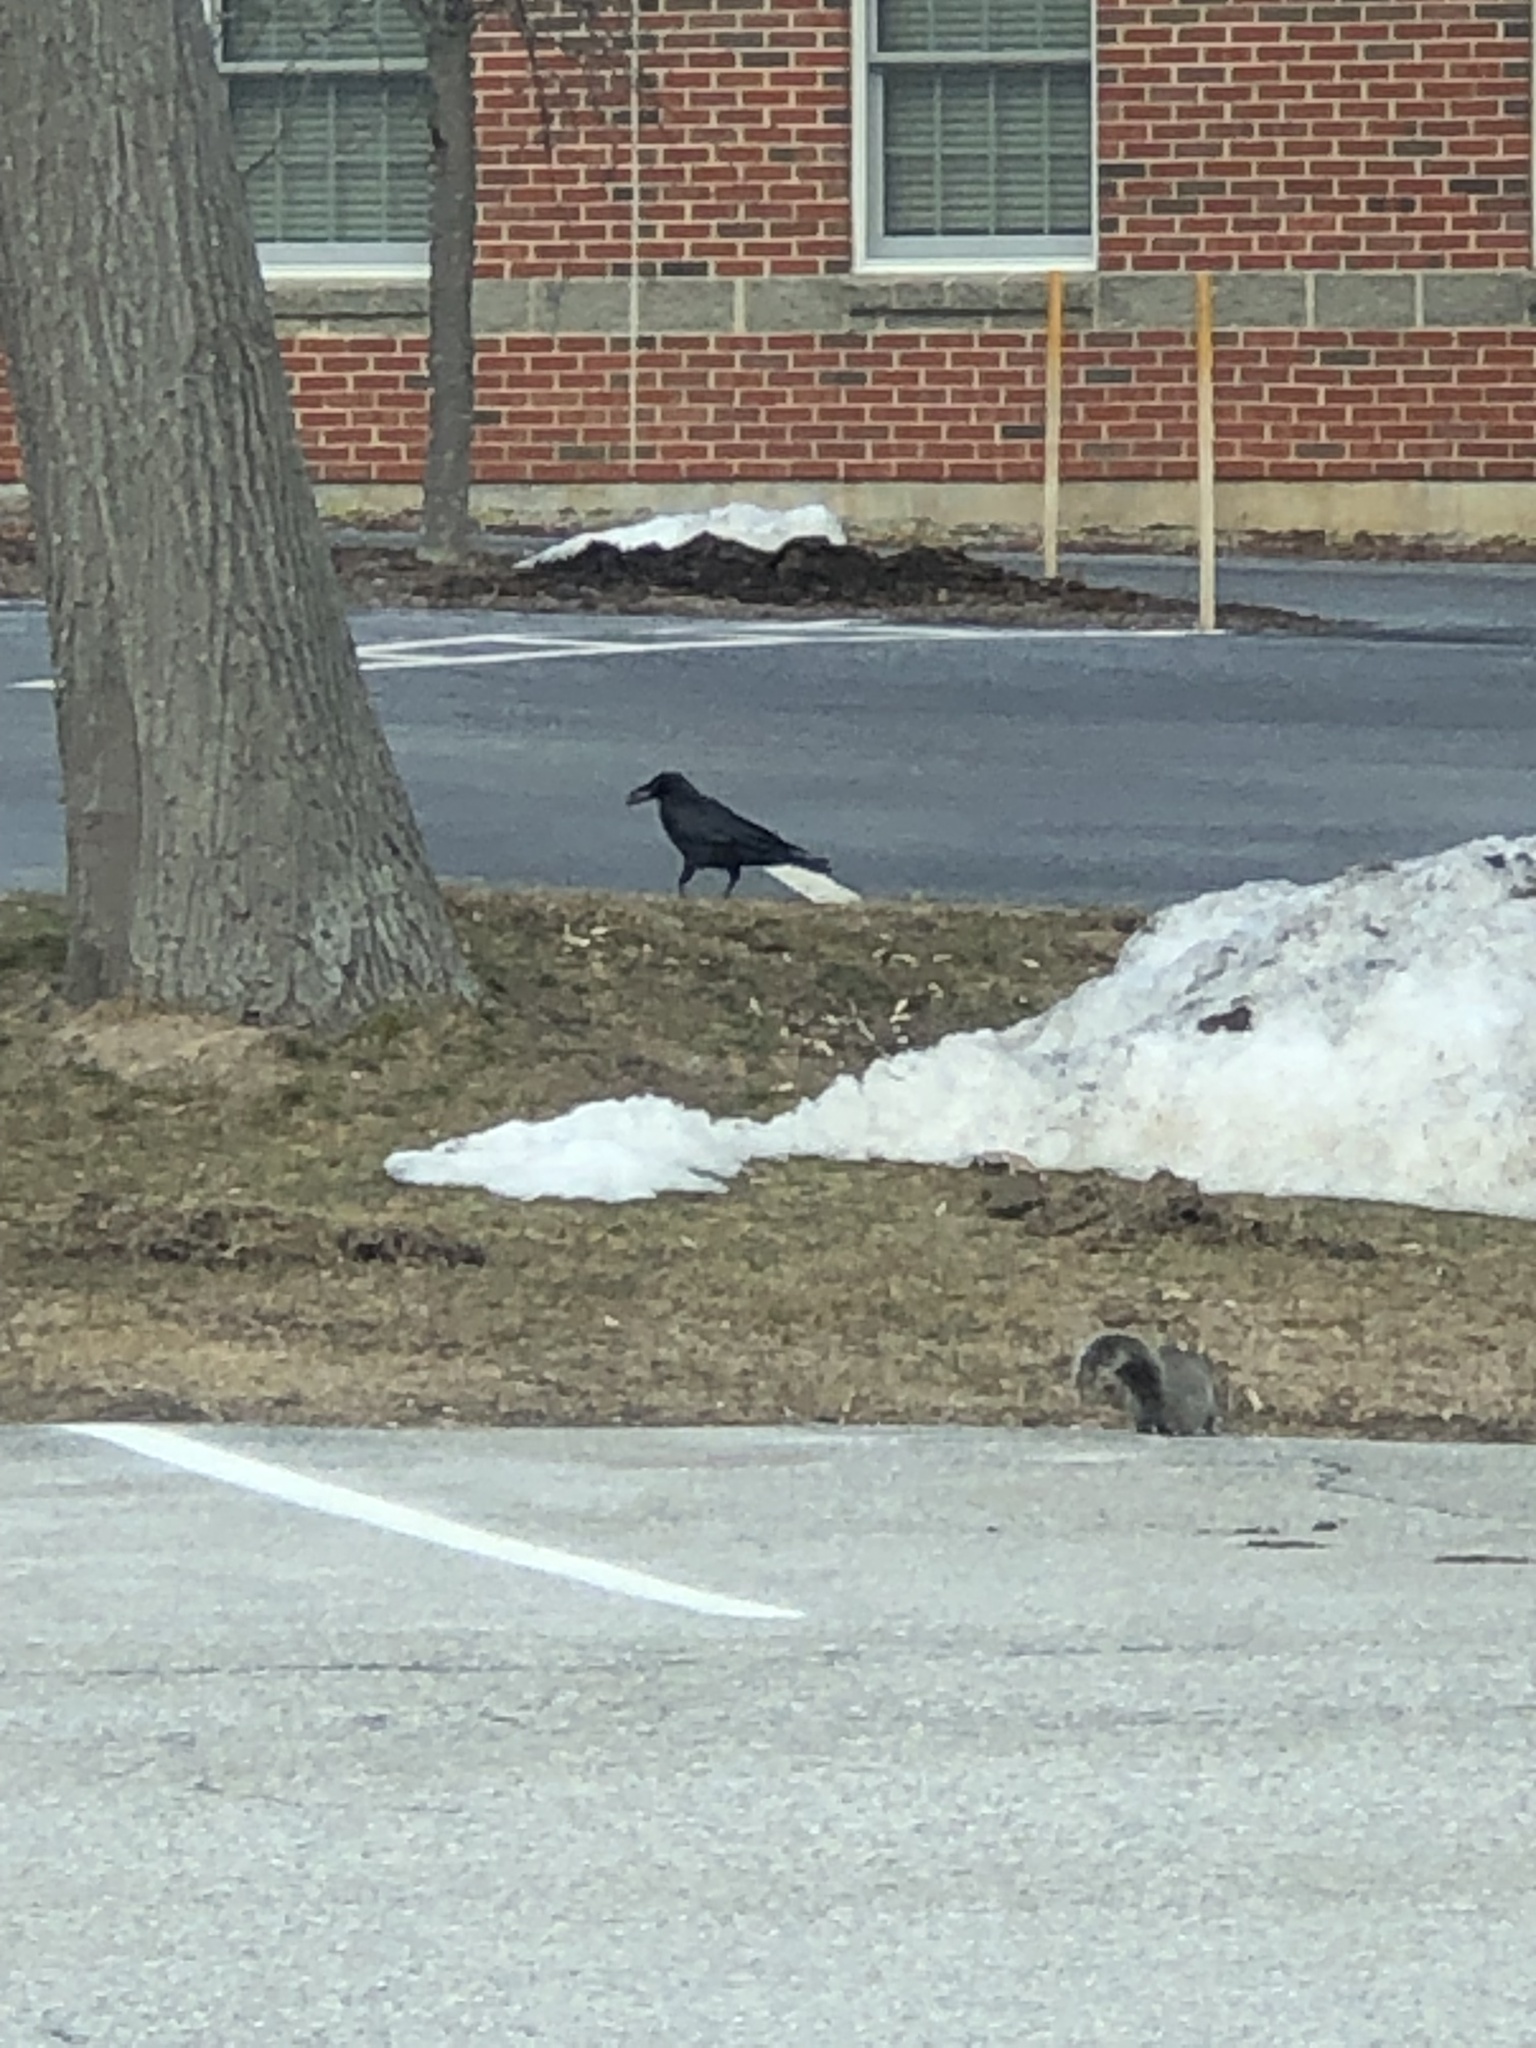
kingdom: Animalia
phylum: Chordata
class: Aves
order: Passeriformes
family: Corvidae
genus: Corvus
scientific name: Corvus brachyrhynchos
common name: American crow
